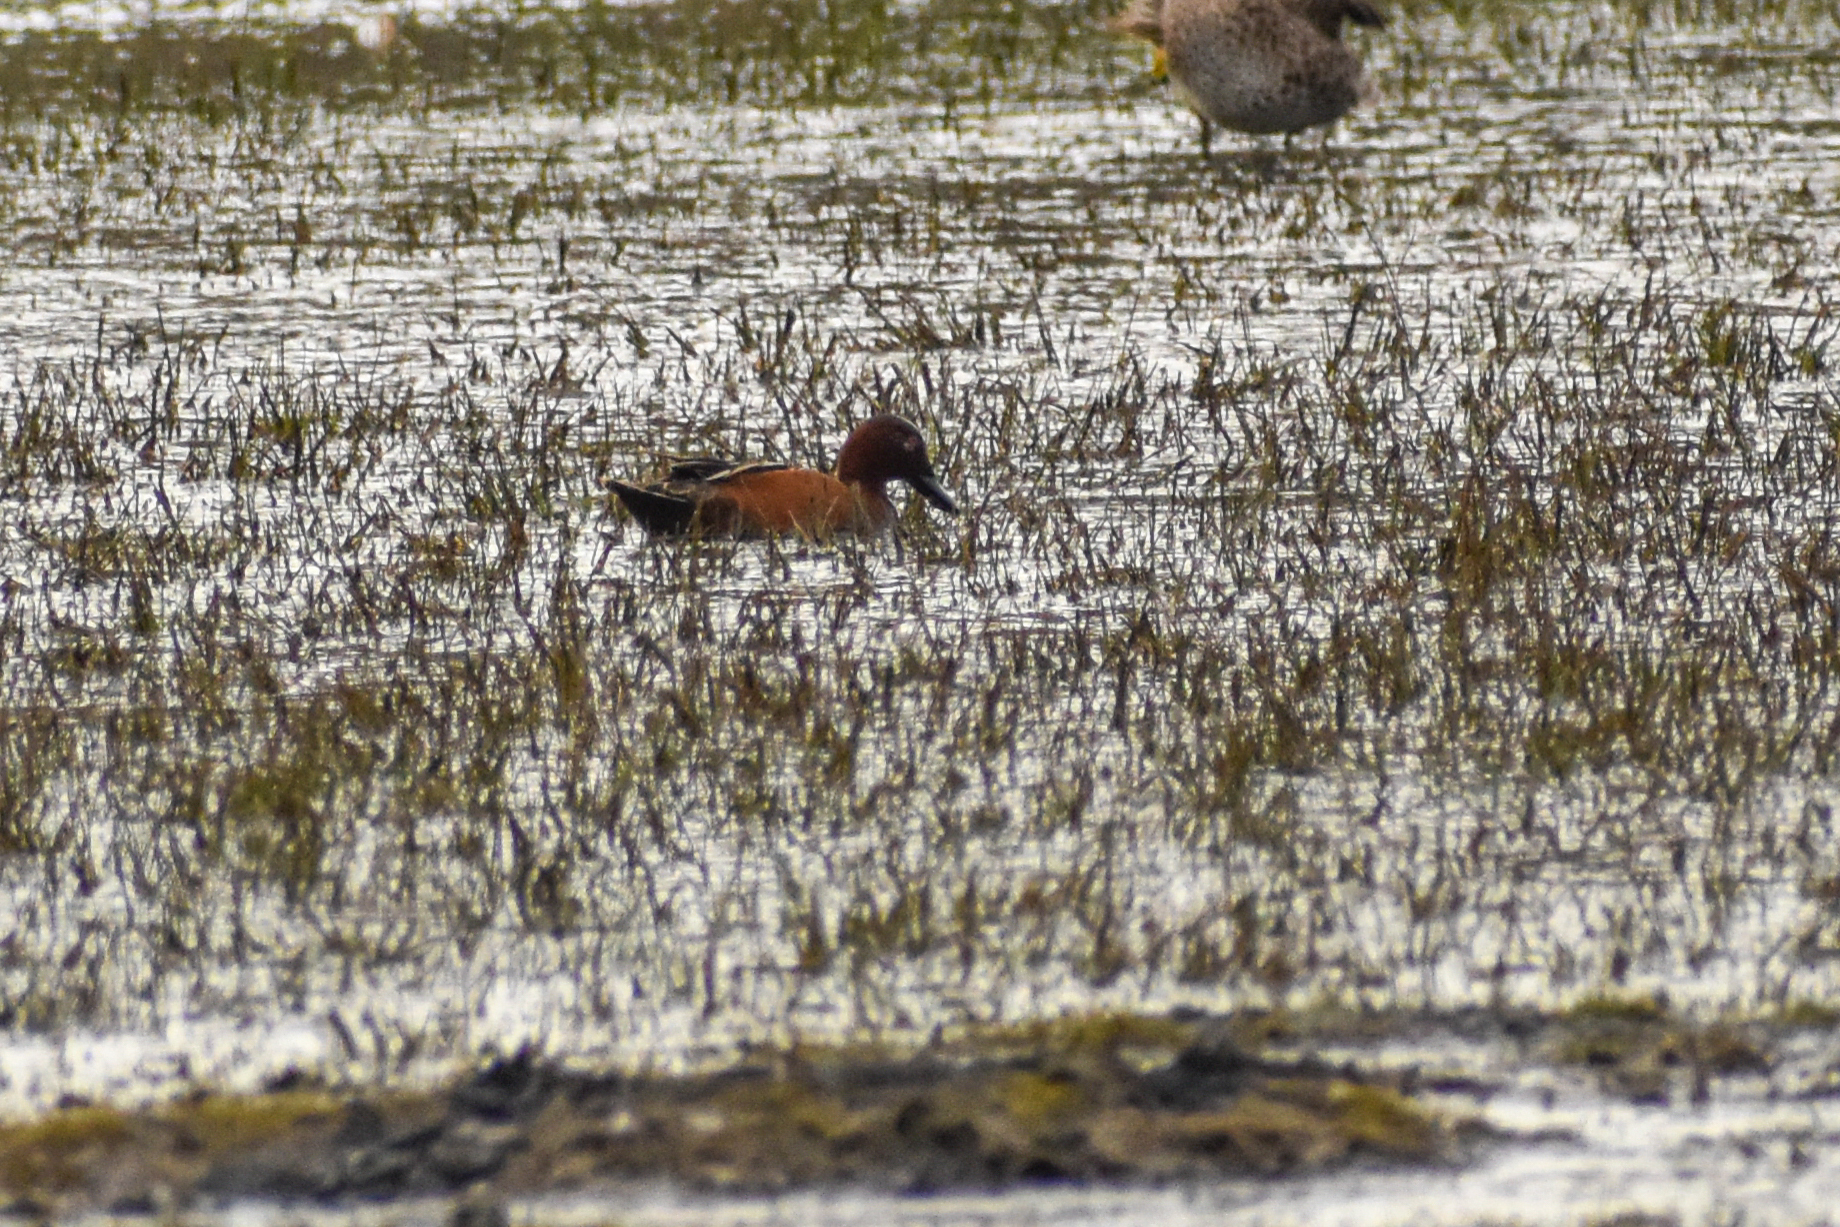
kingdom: Animalia
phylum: Chordata
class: Aves
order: Anseriformes
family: Anatidae
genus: Spatula
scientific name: Spatula cyanoptera
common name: Cinnamon teal
